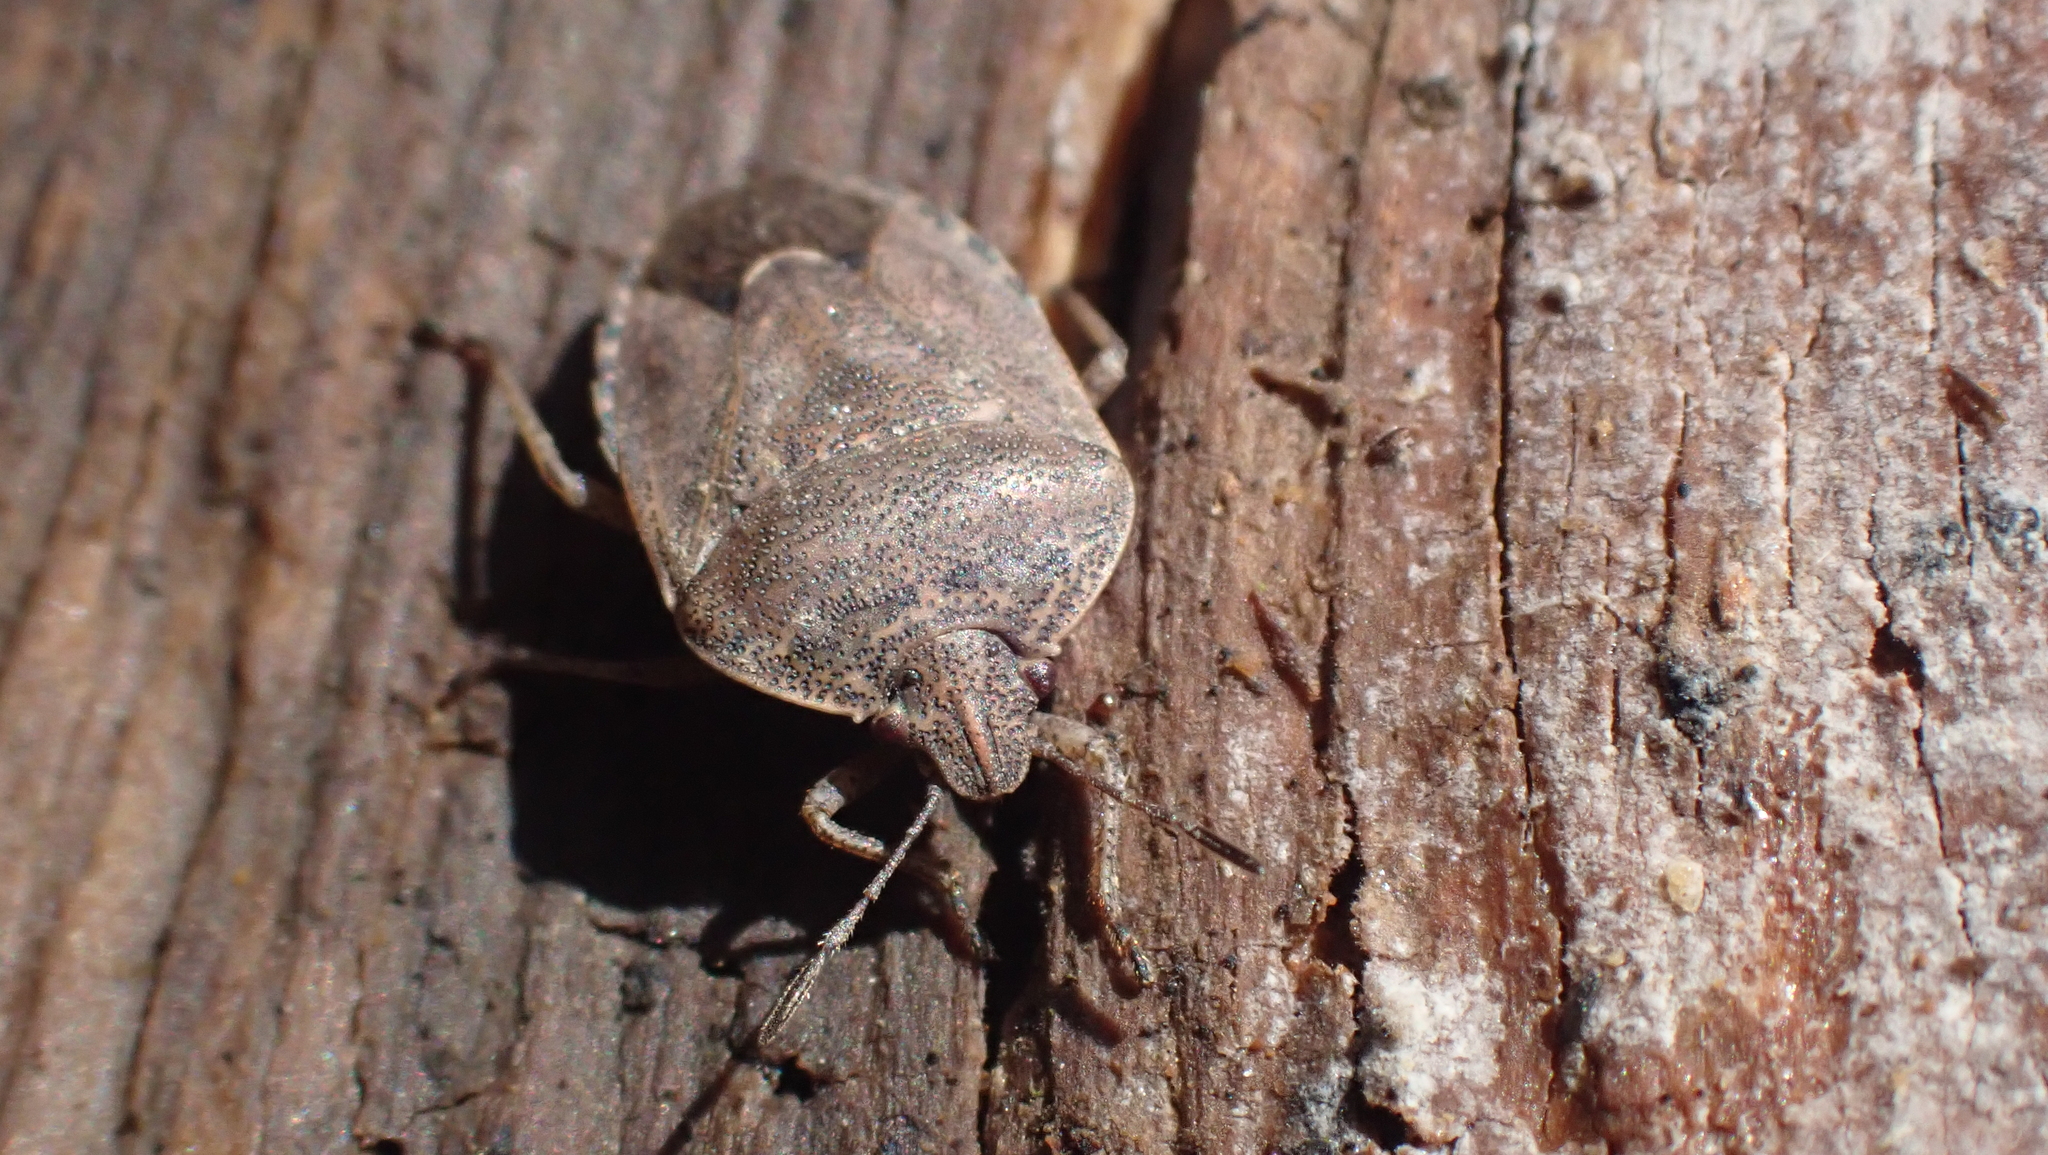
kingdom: Animalia
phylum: Arthropoda
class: Insecta
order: Hemiptera
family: Pentatomidae
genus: Hymenarcys
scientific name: Hymenarcys nervosa
